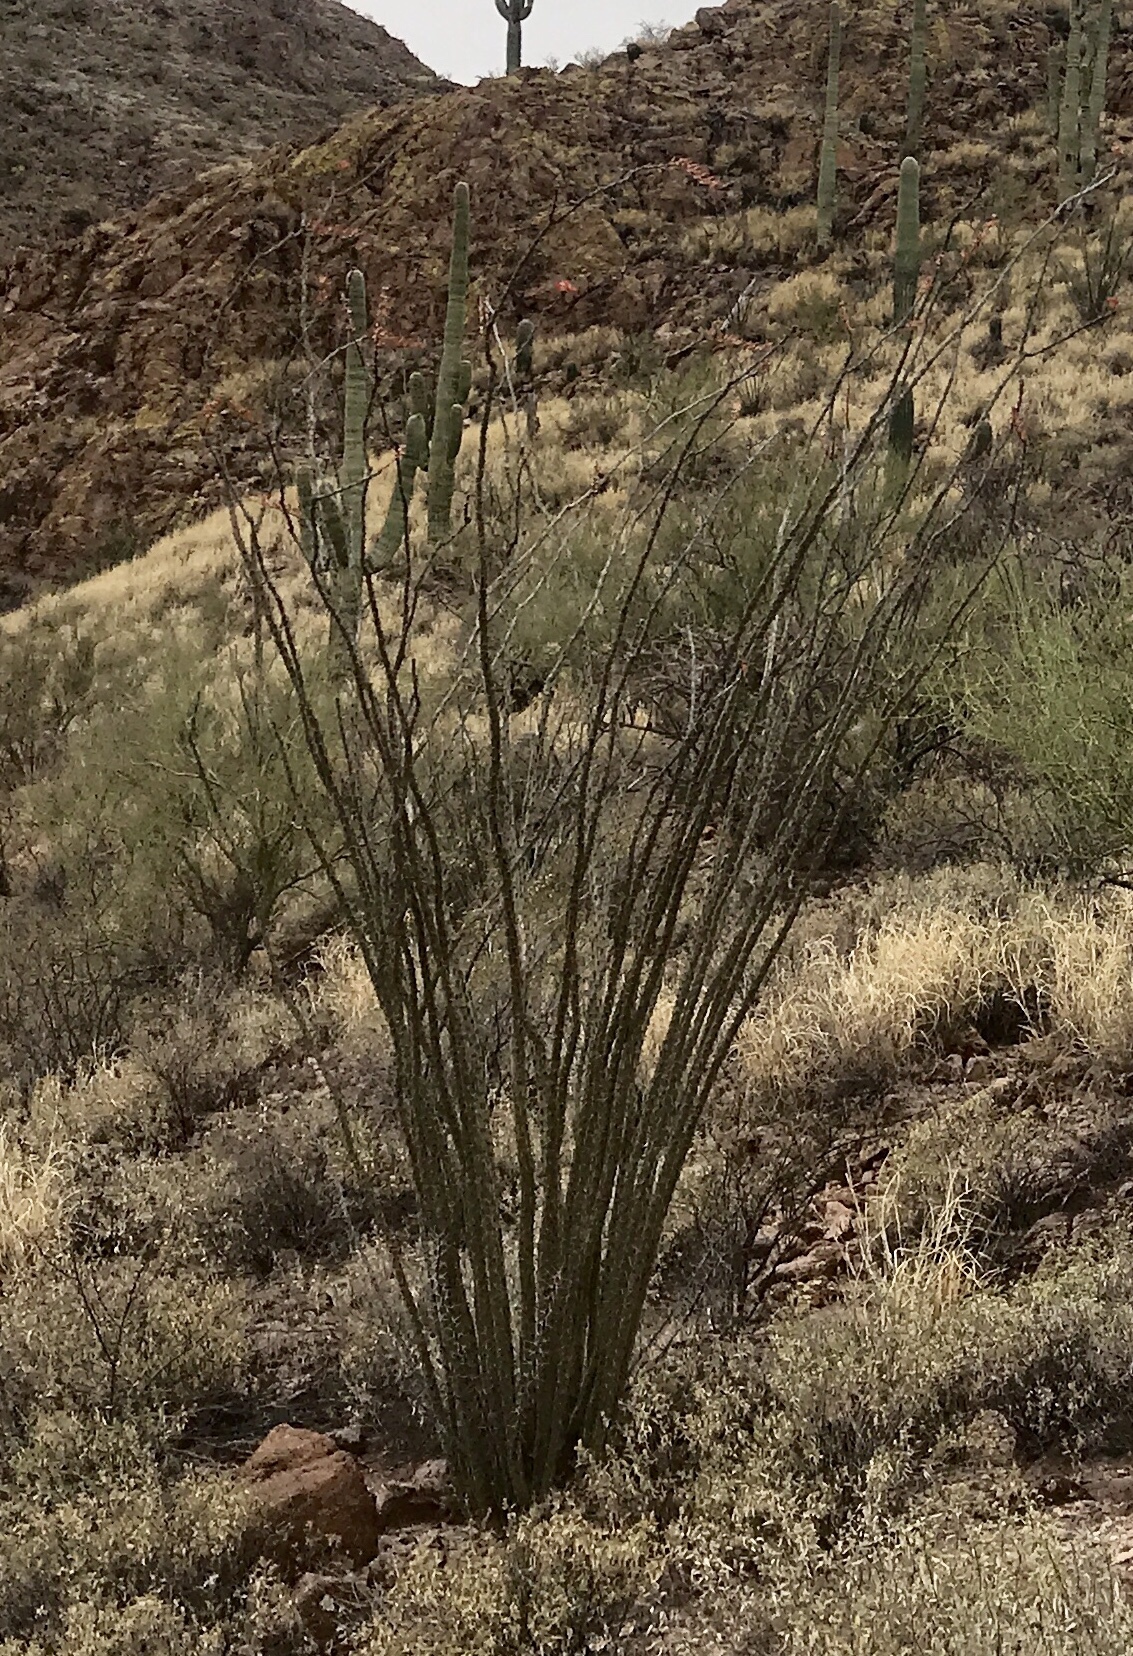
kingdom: Plantae
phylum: Tracheophyta
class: Magnoliopsida
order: Ericales
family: Fouquieriaceae
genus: Fouquieria
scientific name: Fouquieria splendens
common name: Vine-cactus
